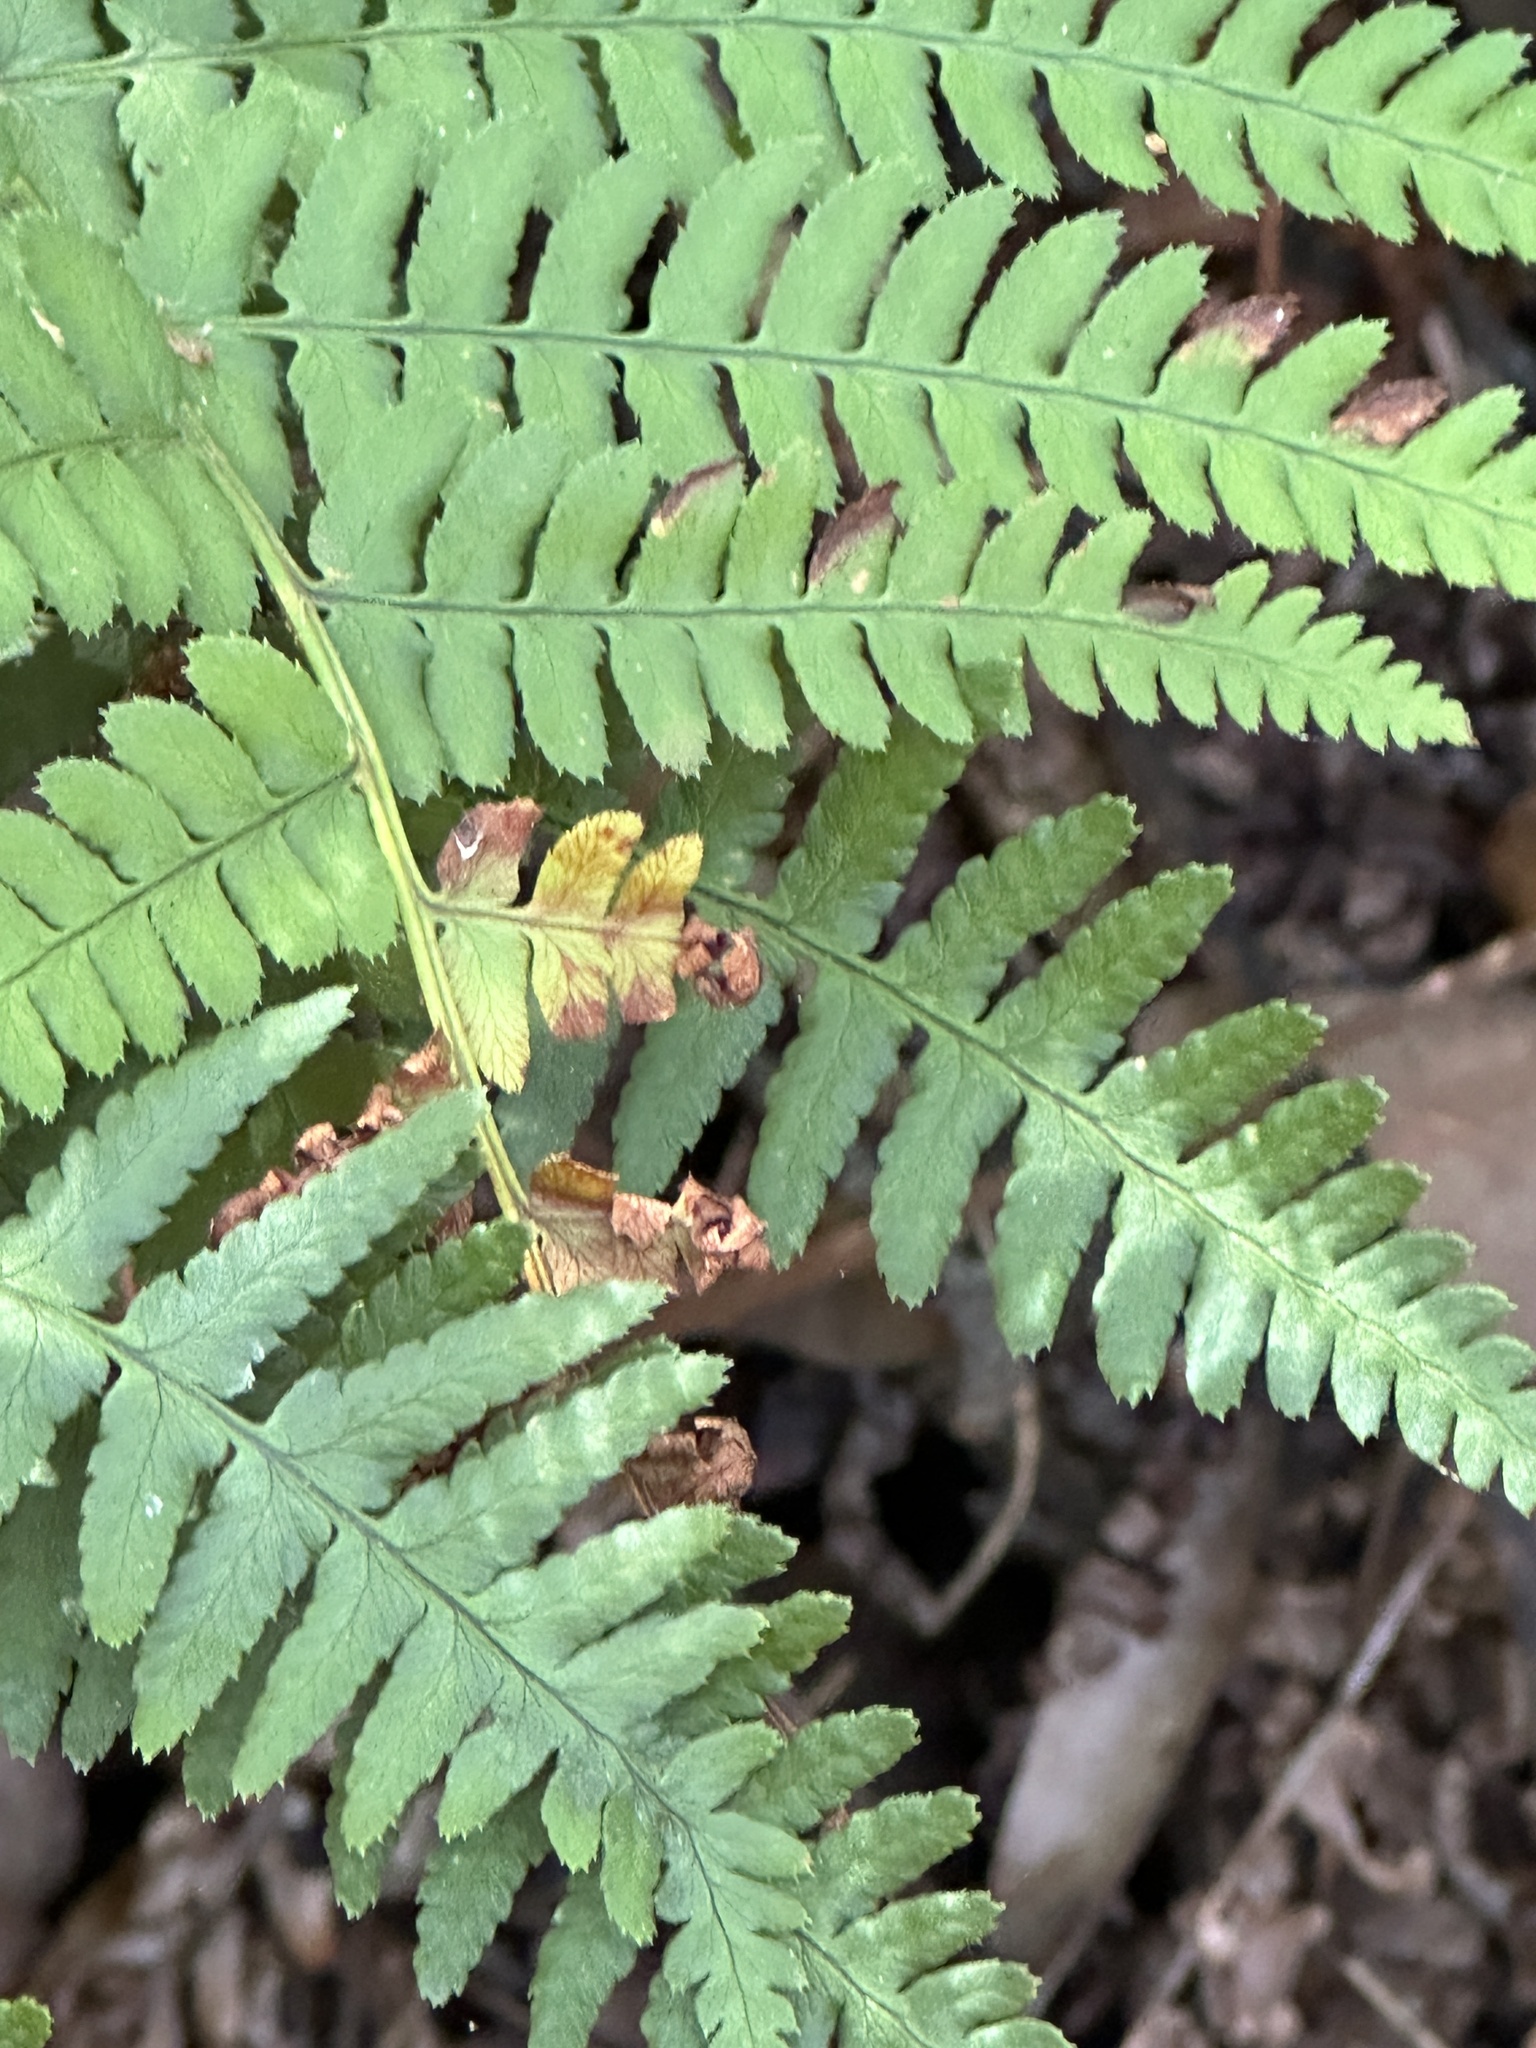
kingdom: Plantae
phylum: Tracheophyta
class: Polypodiopsida
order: Polypodiales
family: Dryopteridaceae
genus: Dryopteris
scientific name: Dryopteris arguta
